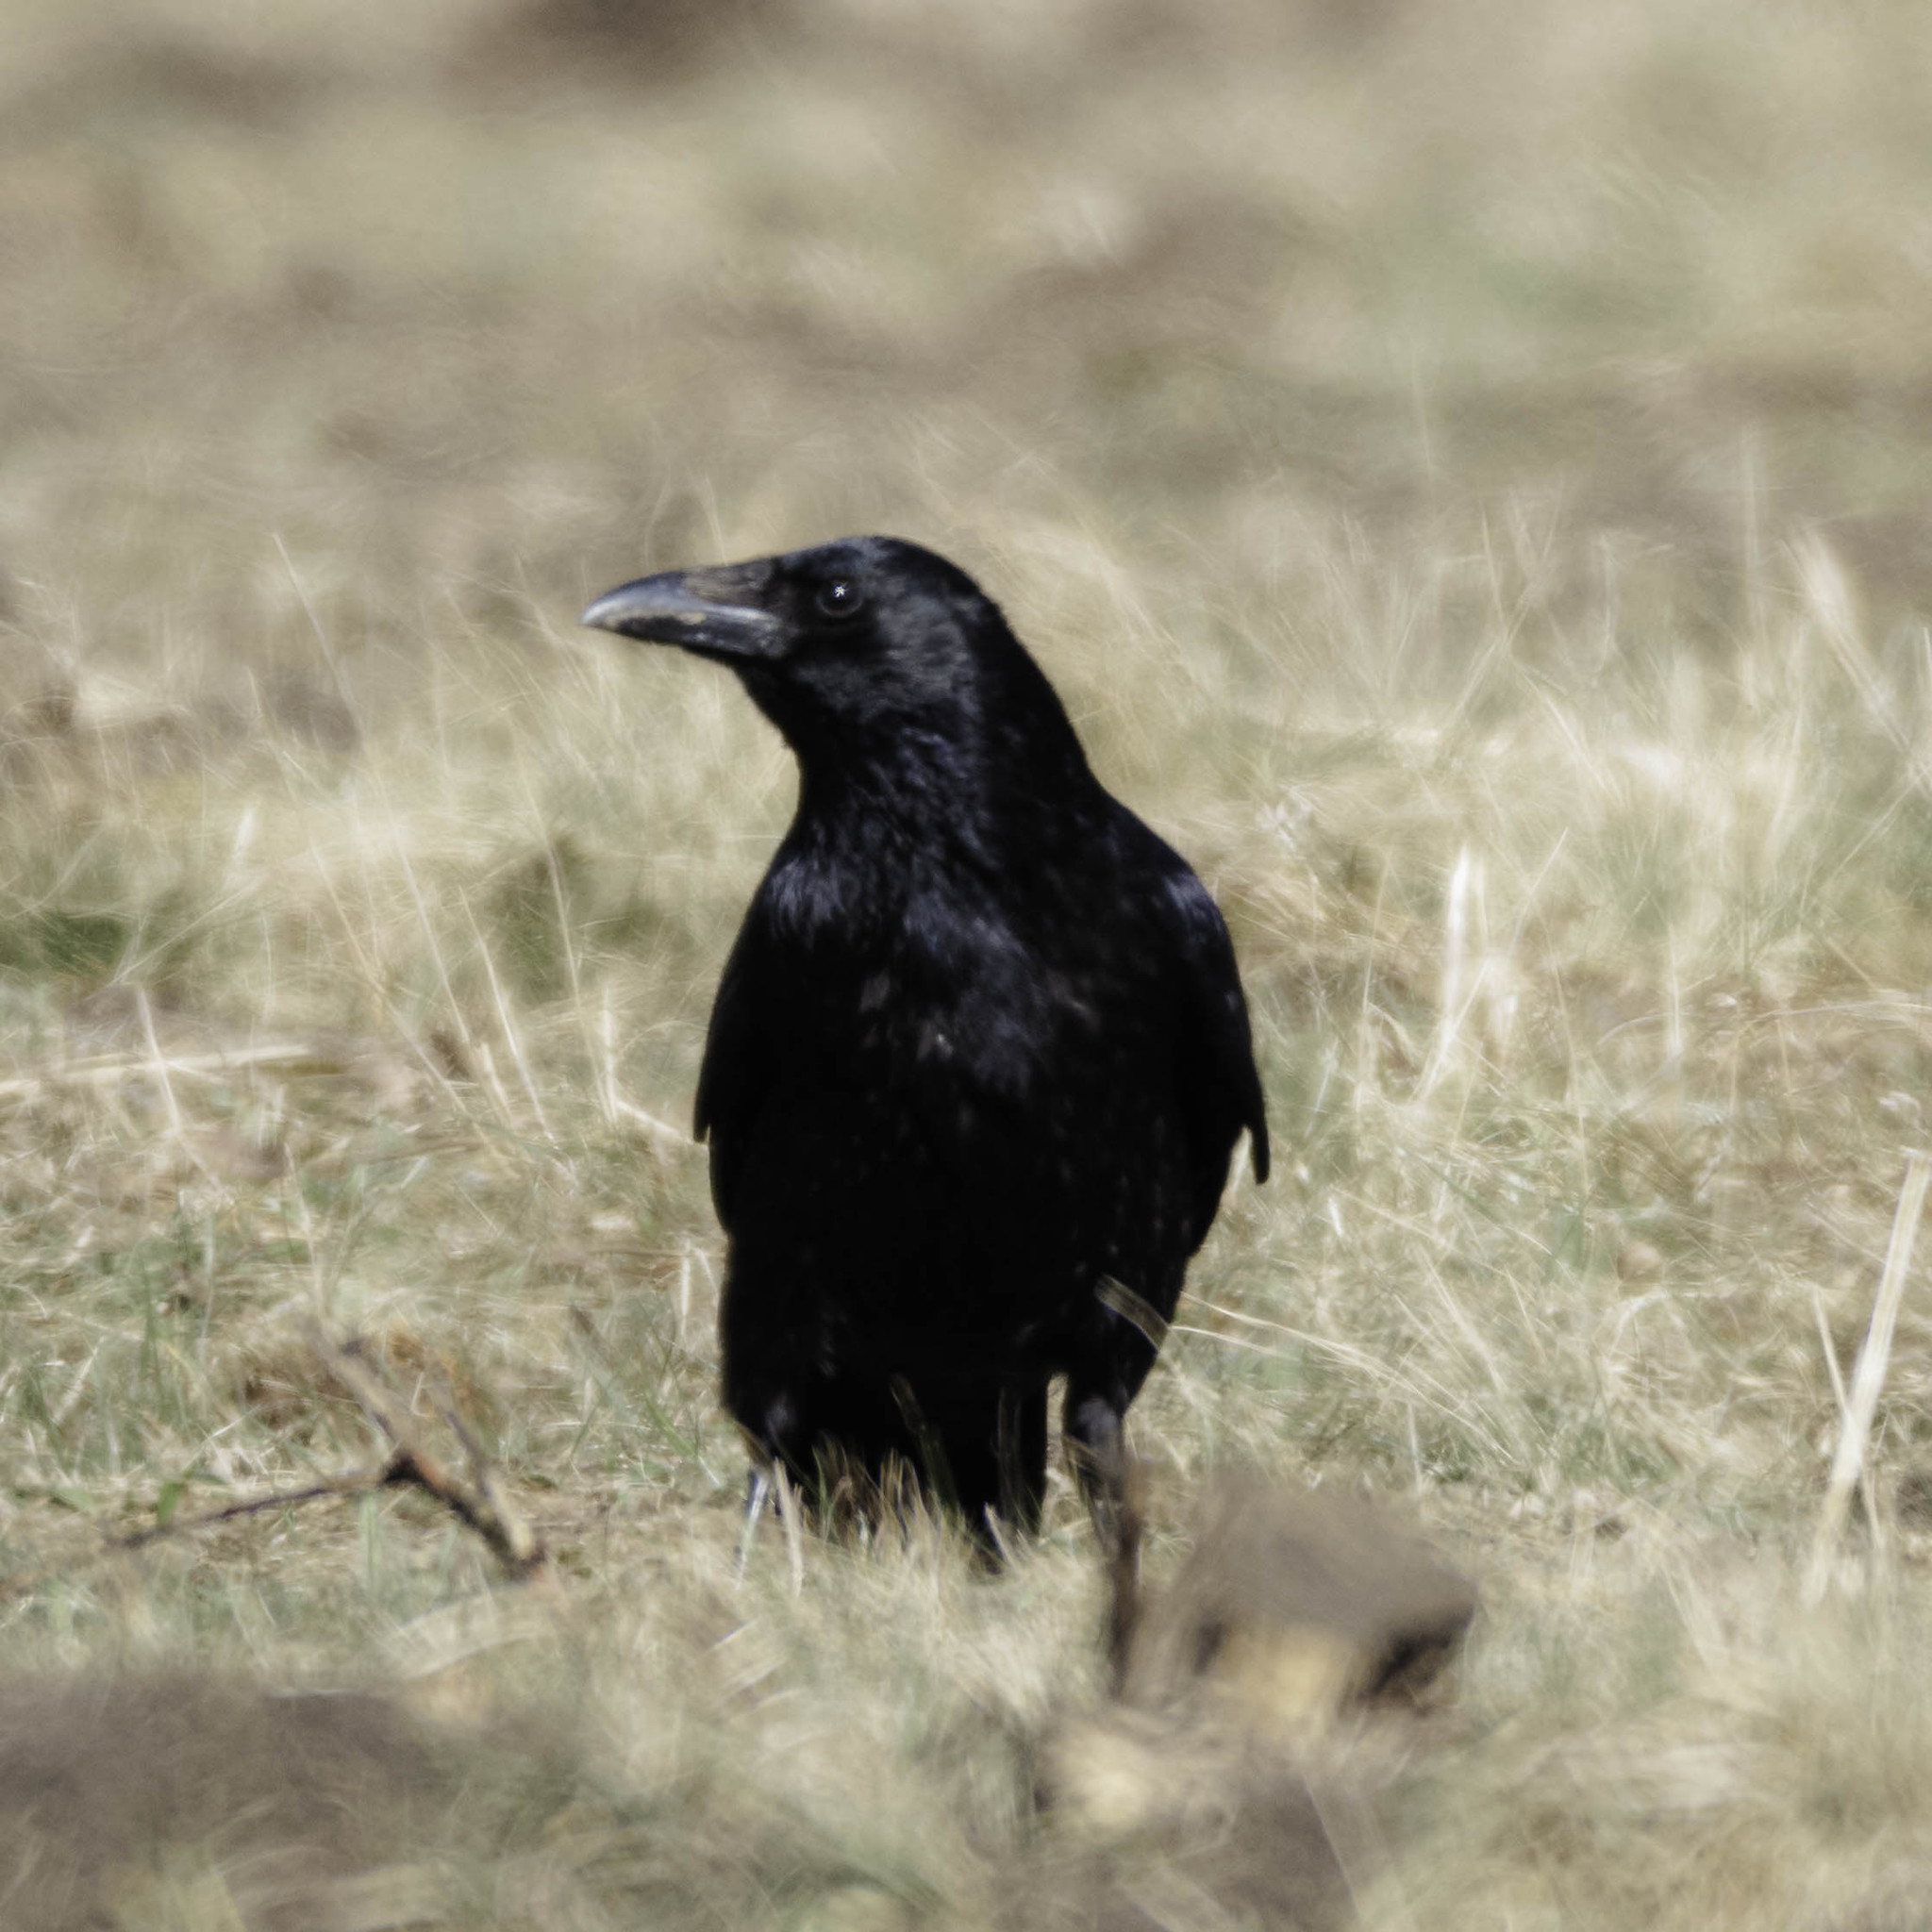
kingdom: Animalia
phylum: Chordata
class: Aves
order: Passeriformes
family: Corvidae
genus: Corvus
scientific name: Corvus corone
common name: Carrion crow
